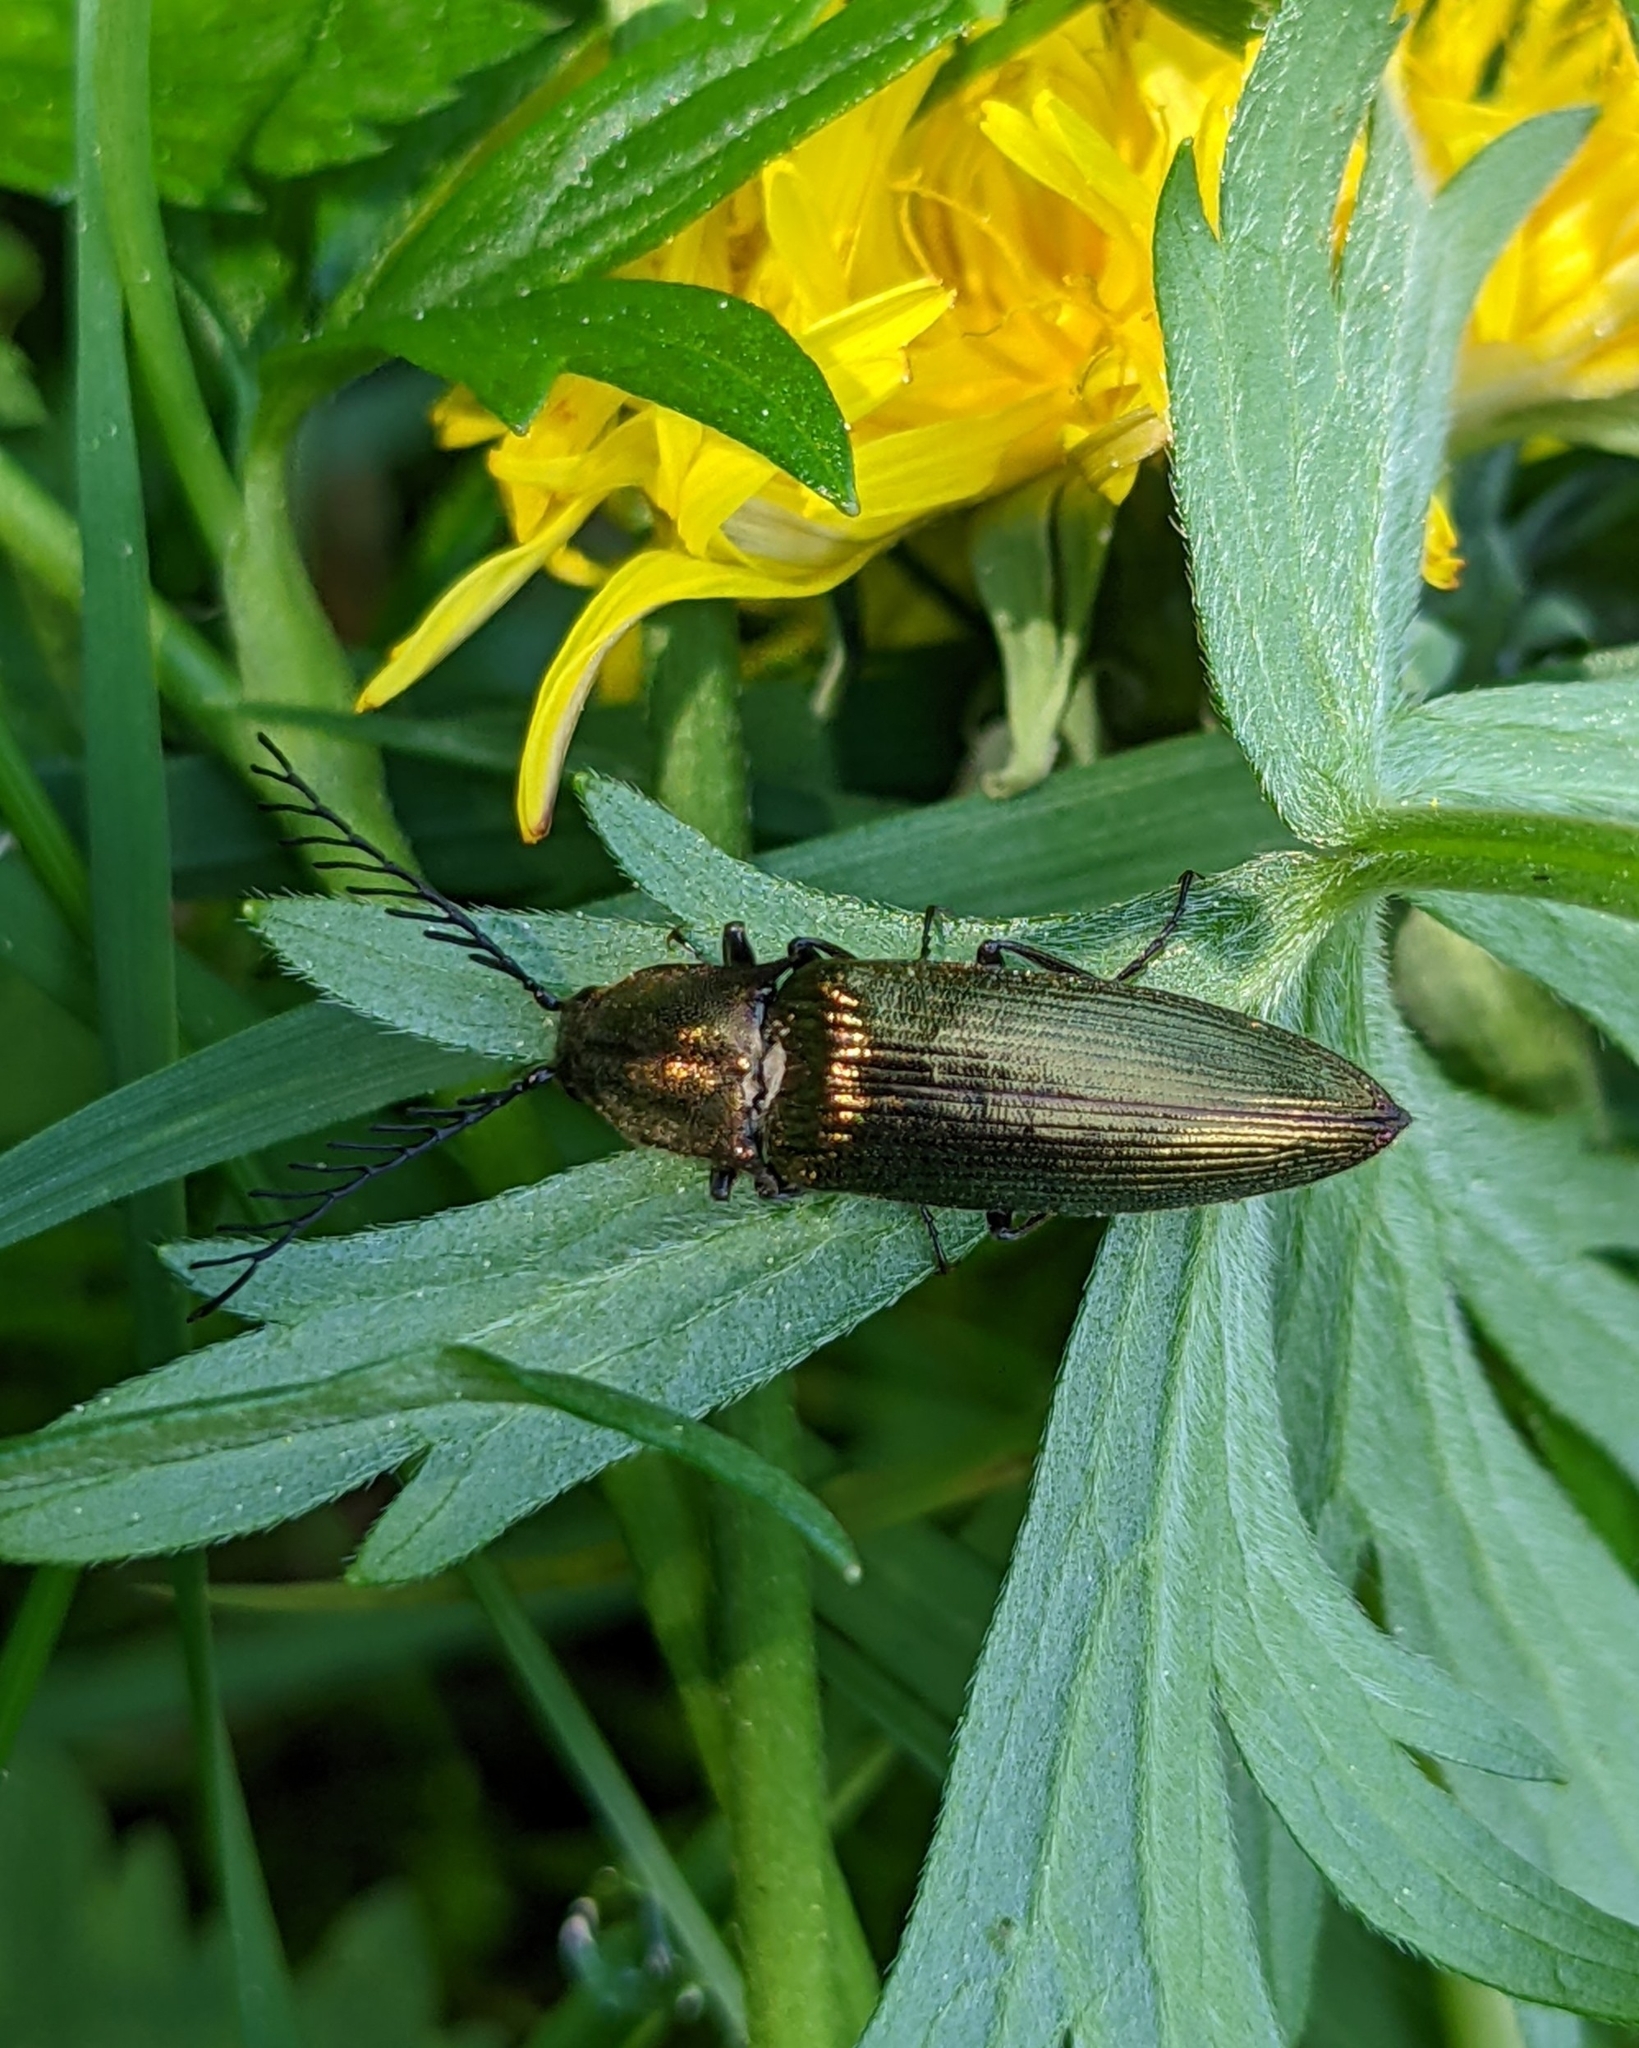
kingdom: Animalia
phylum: Arthropoda
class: Insecta
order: Coleoptera
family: Elateridae
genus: Ctenicera
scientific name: Ctenicera pectinicornis
